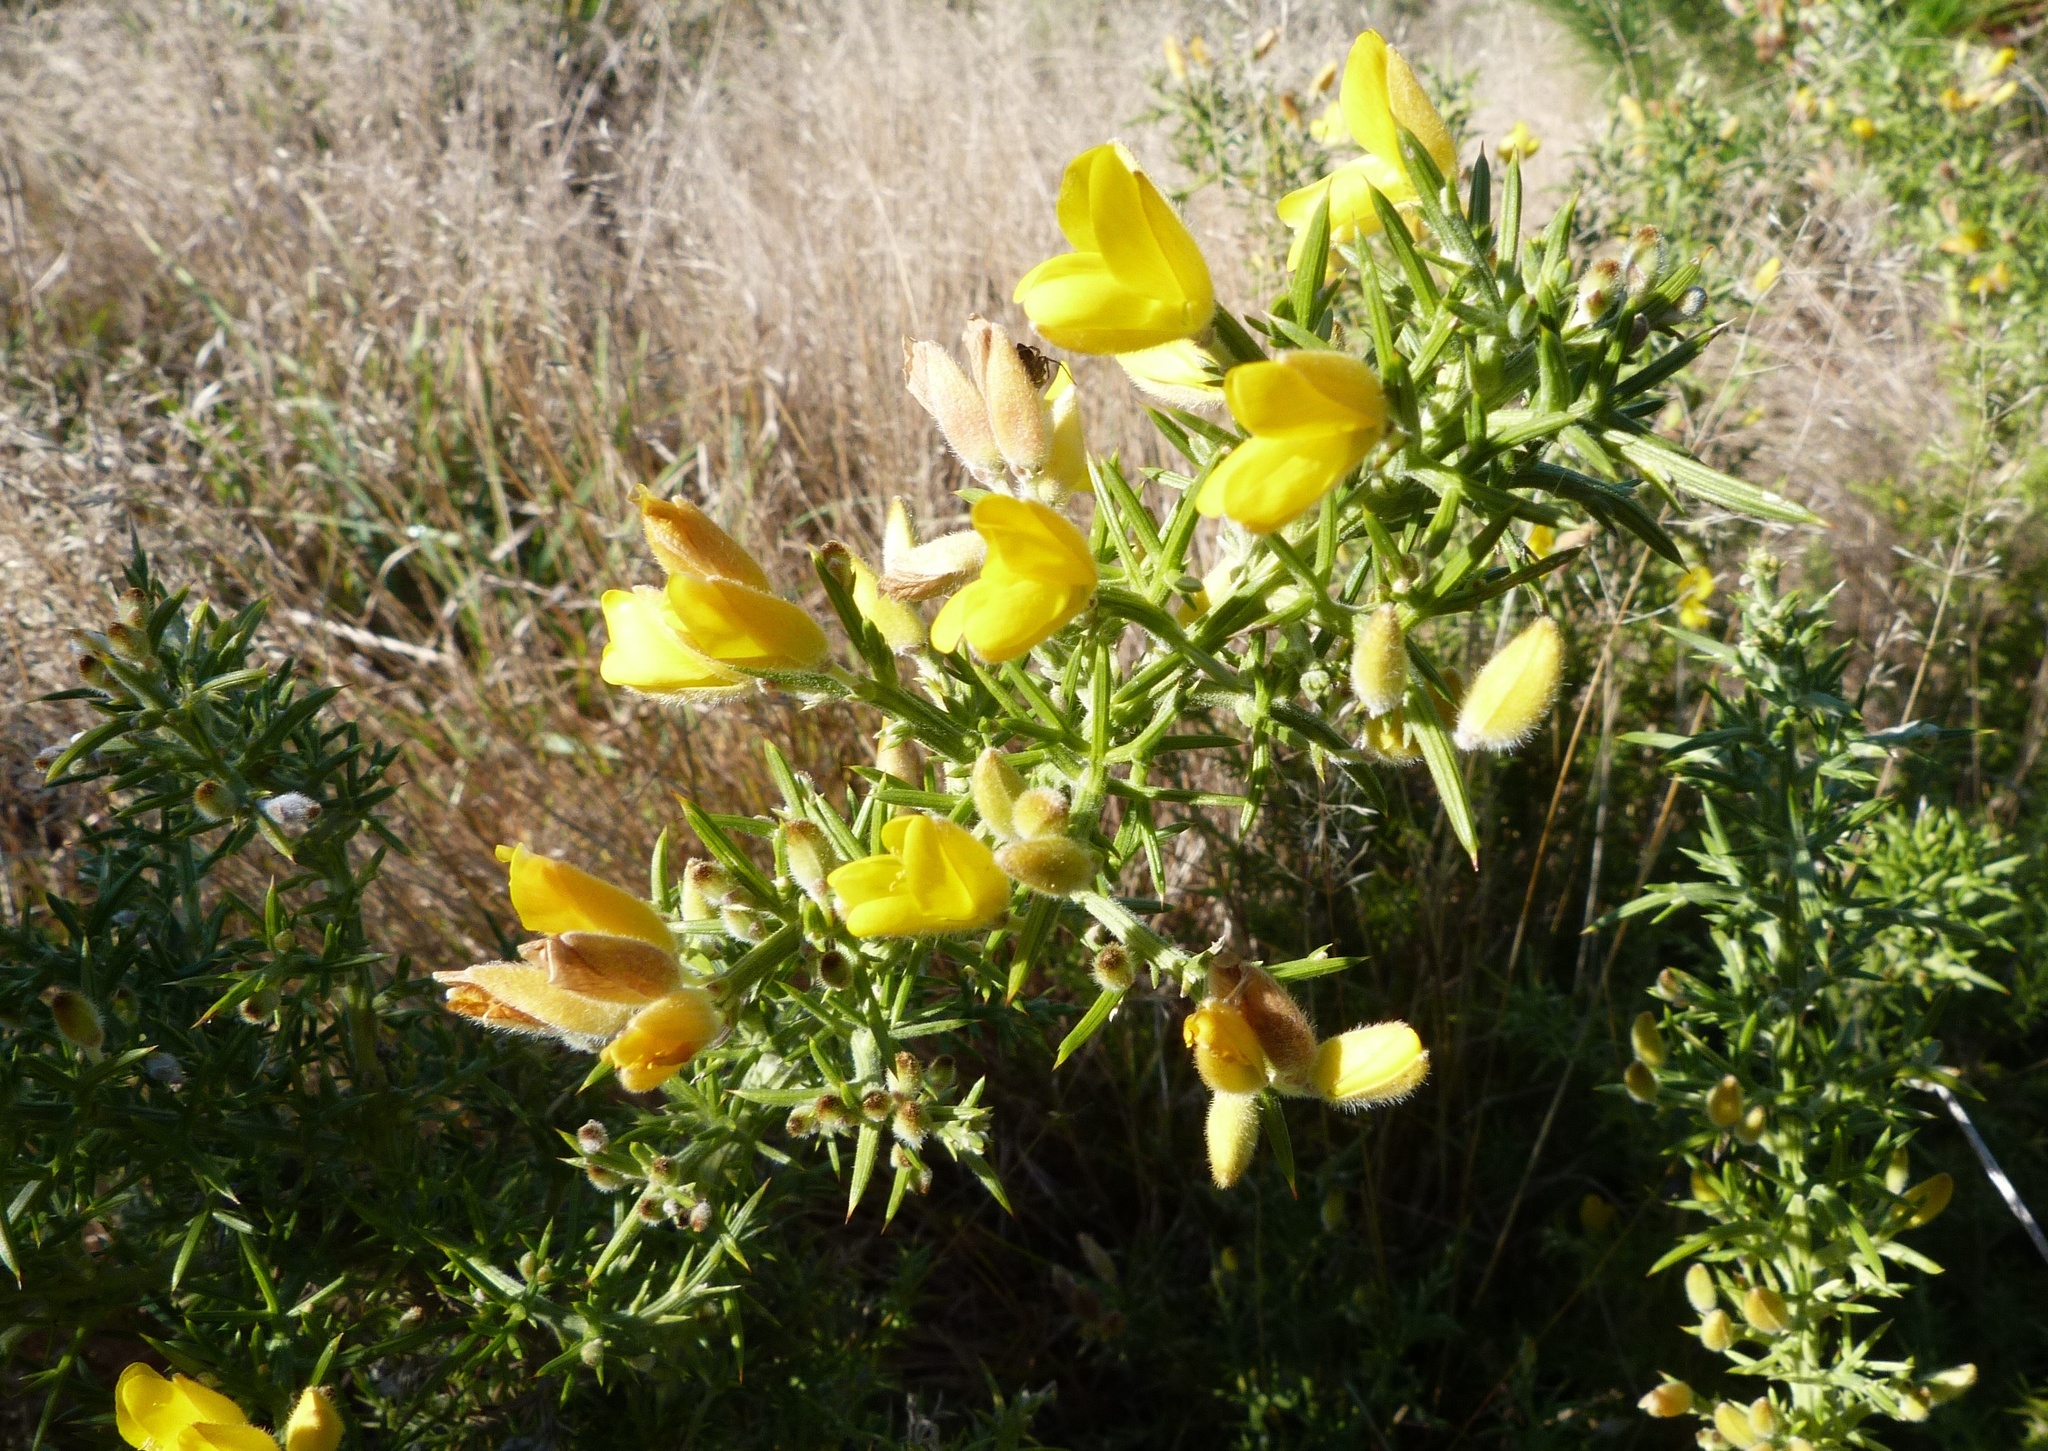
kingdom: Plantae
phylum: Tracheophyta
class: Magnoliopsida
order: Fabales
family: Fabaceae
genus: Ulex
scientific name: Ulex europaeus
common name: Common gorse
